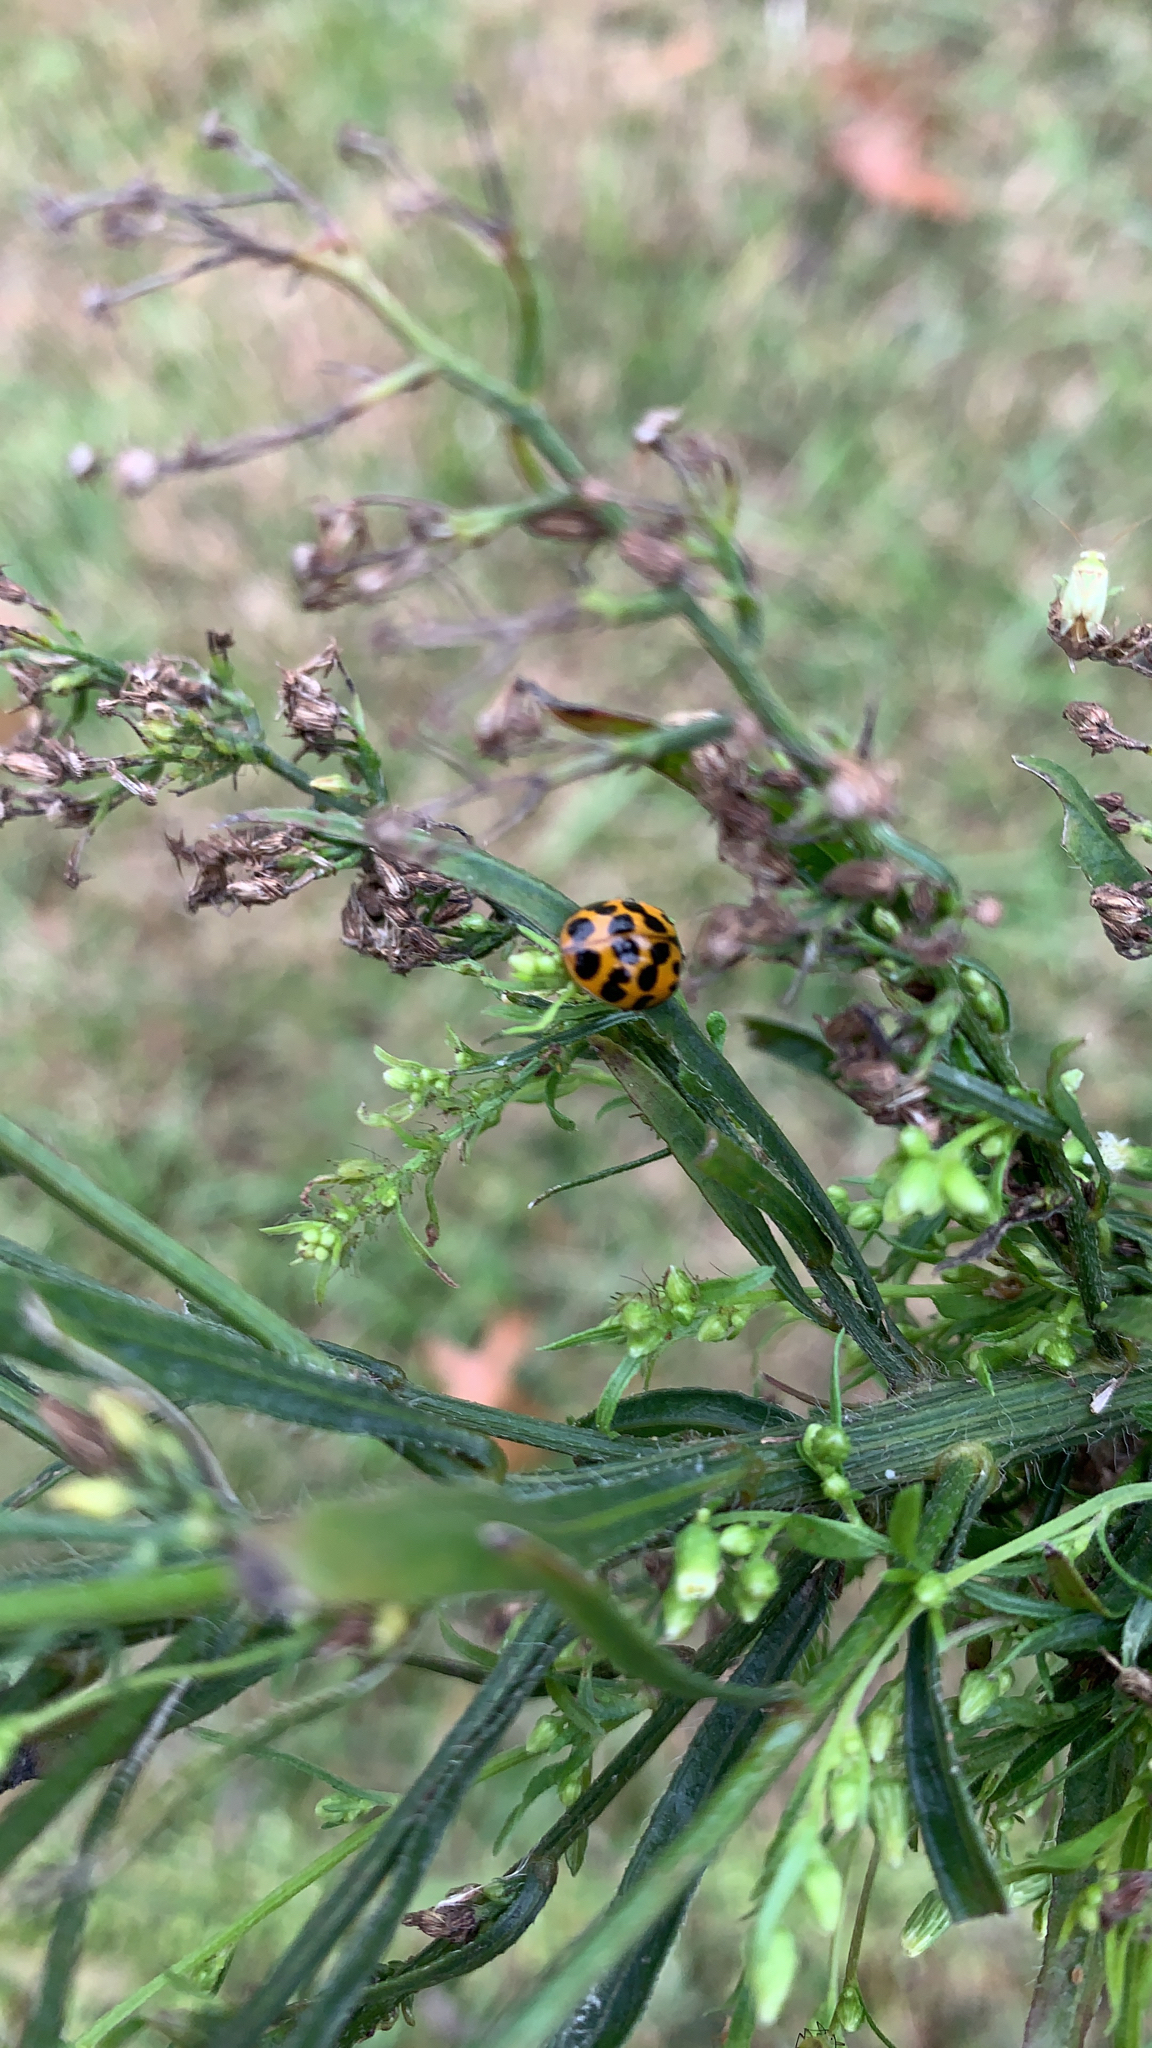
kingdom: Animalia
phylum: Arthropoda
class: Insecta
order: Coleoptera
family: Coccinellidae
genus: Harmonia
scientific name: Harmonia axyridis
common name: Harlequin ladybird
